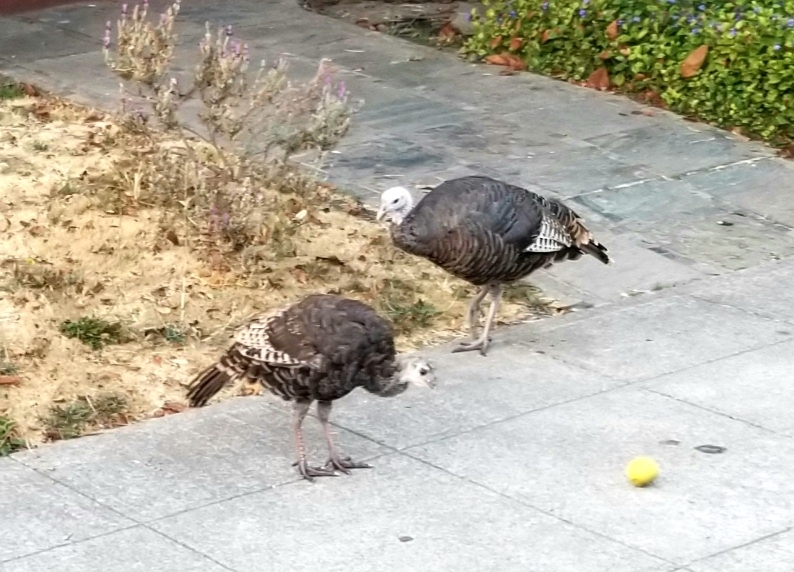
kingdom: Animalia
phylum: Chordata
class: Aves
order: Galliformes
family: Phasianidae
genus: Meleagris
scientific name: Meleagris gallopavo
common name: Wild turkey
